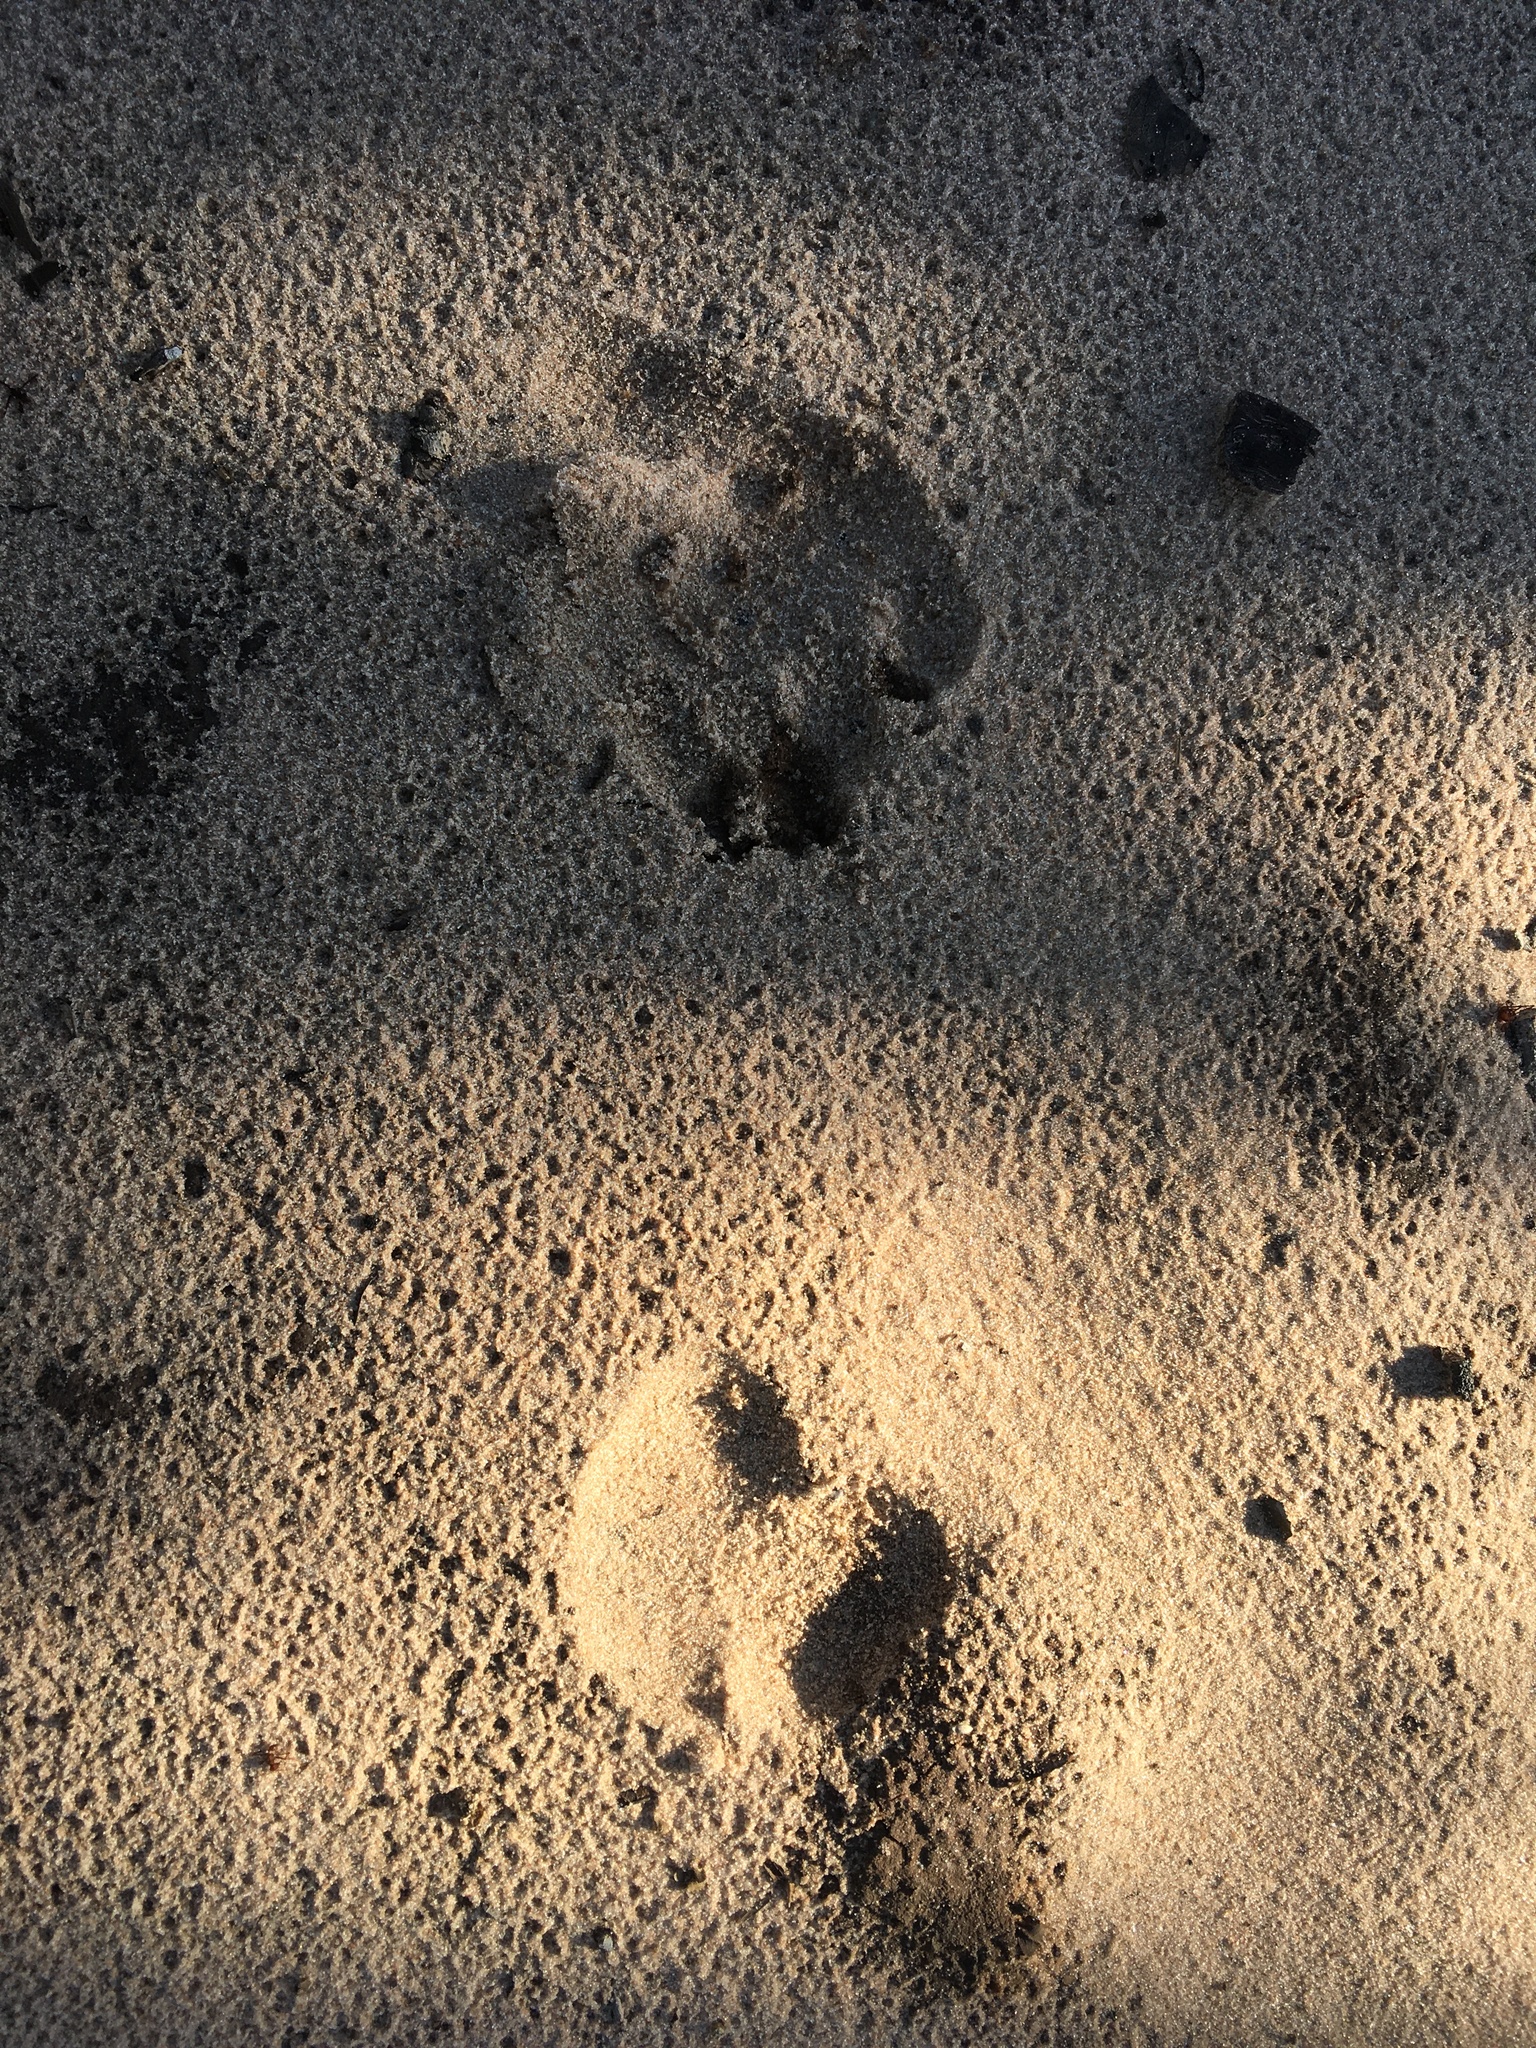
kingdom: Animalia
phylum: Chordata
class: Mammalia
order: Pilosa
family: Myrmecophagidae
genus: Myrmecophaga
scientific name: Myrmecophaga tridactyla
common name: Giant anteater
